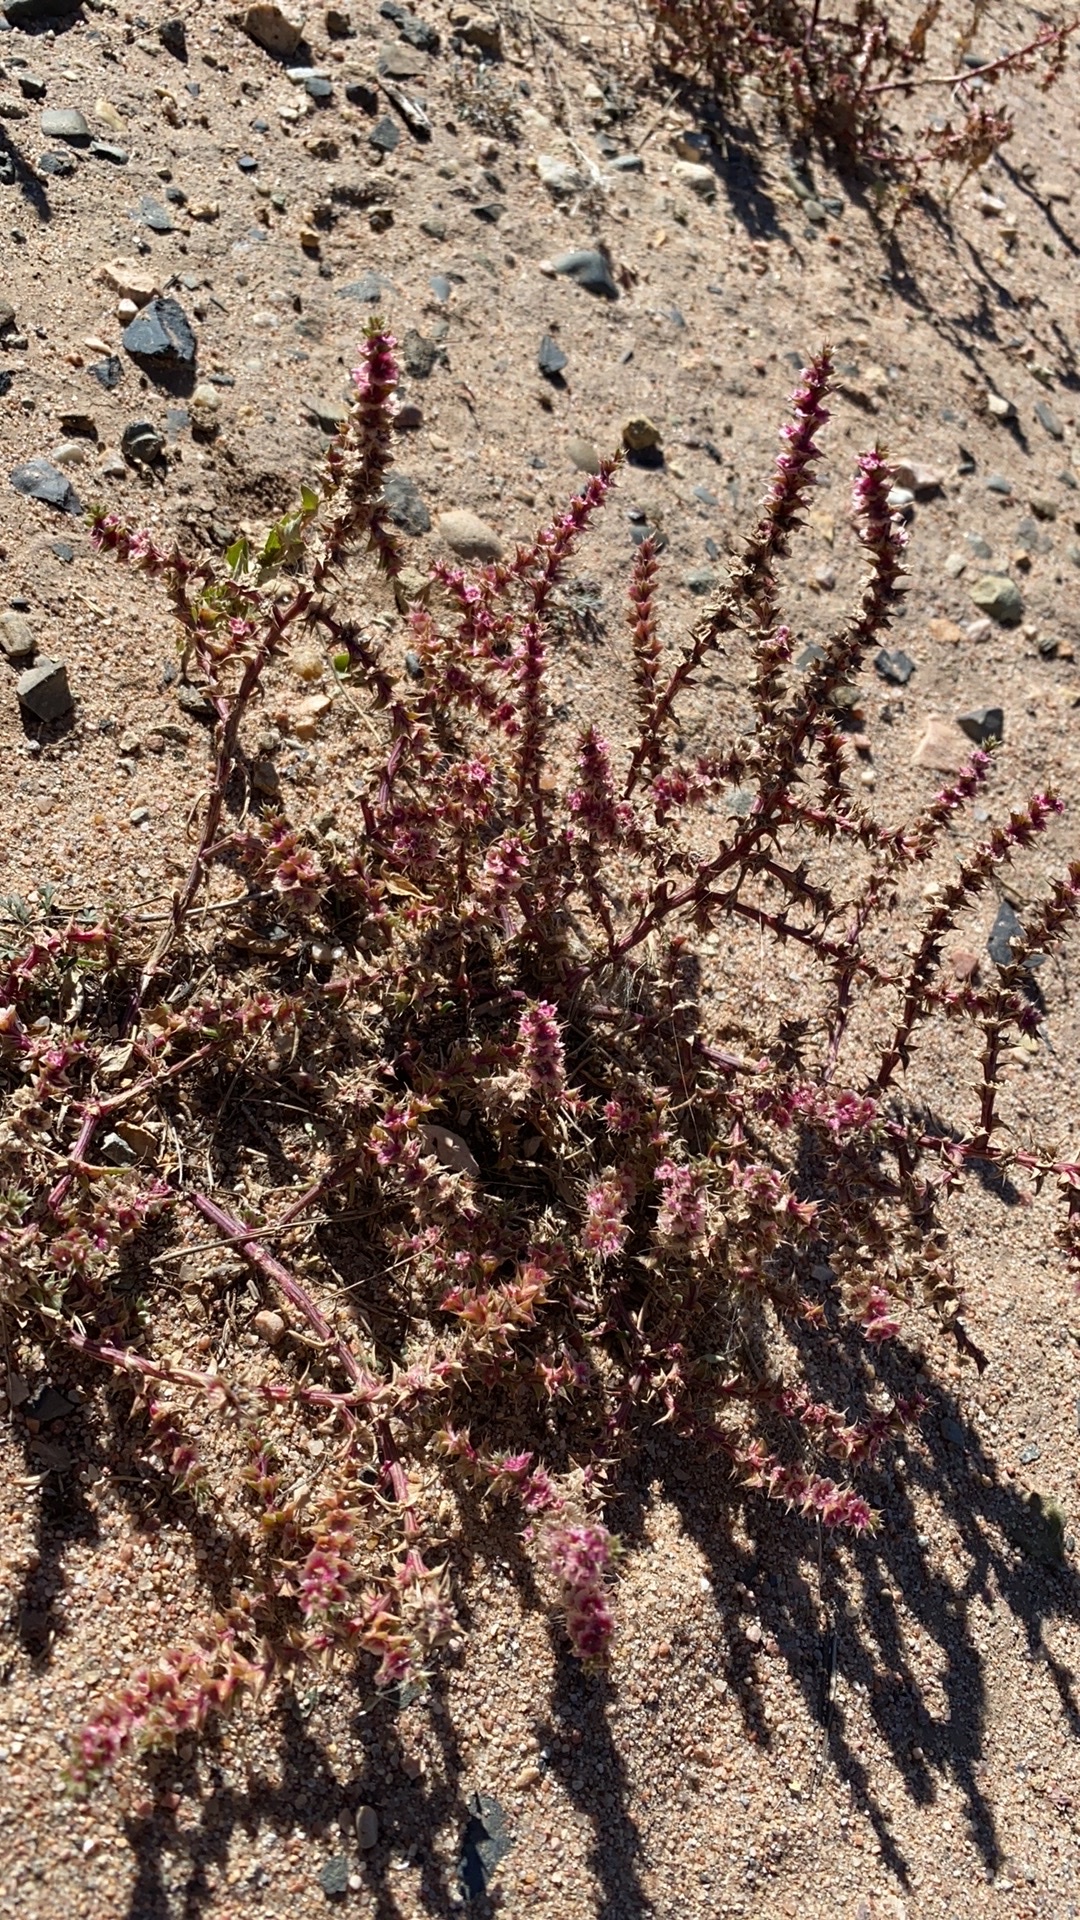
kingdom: Plantae
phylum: Tracheophyta
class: Magnoliopsida
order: Caryophyllales
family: Amaranthaceae
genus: Salsola
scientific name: Salsola tragus
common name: Prickly russian thistle
